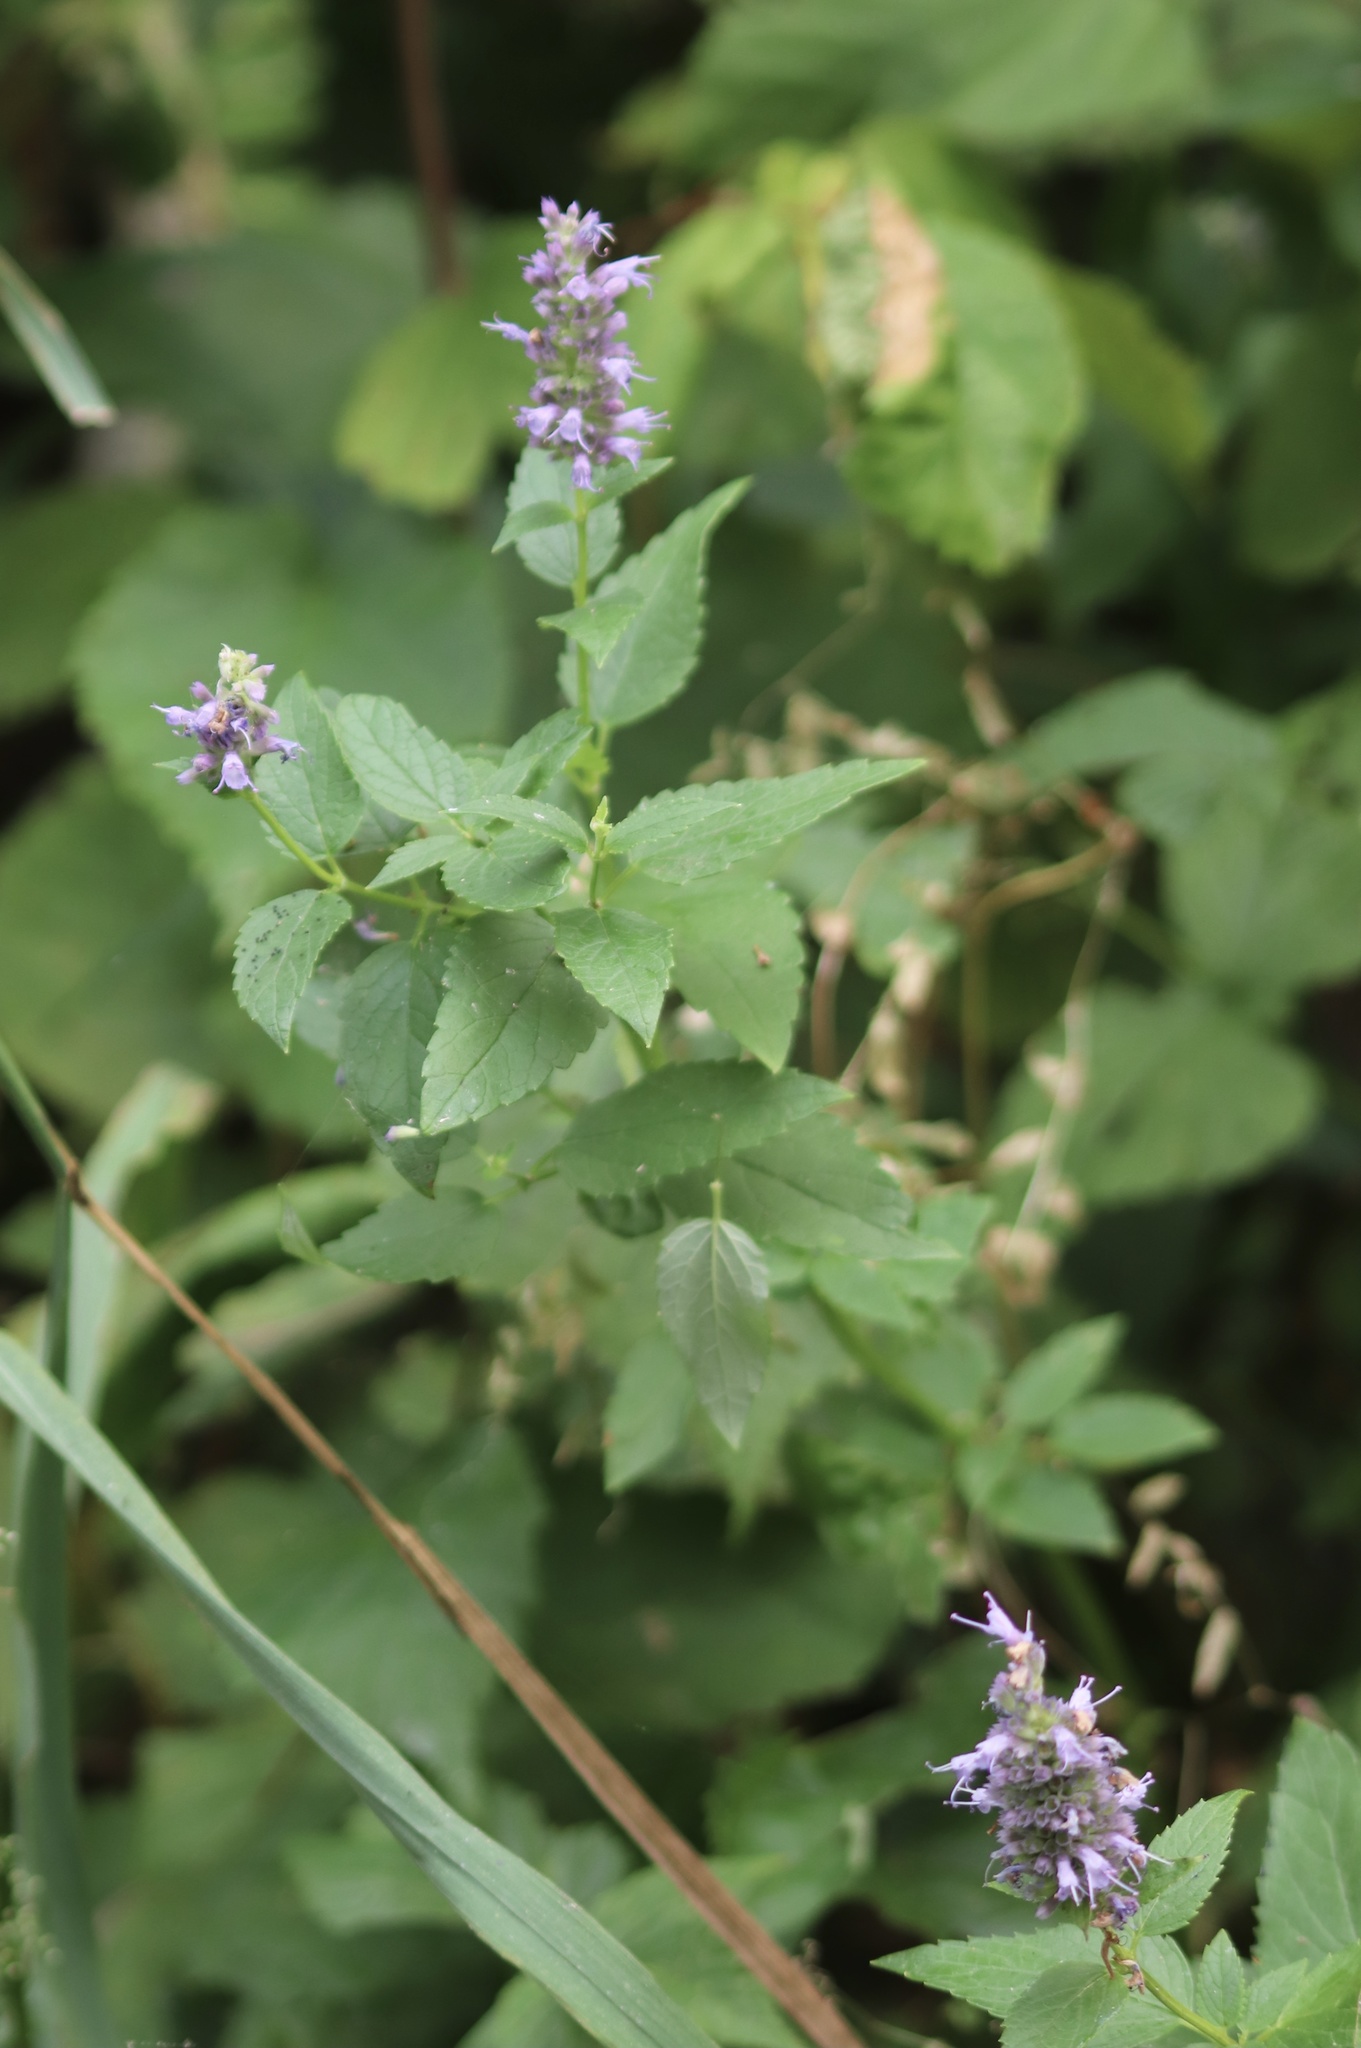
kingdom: Plantae
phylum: Tracheophyta
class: Magnoliopsida
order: Lamiales
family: Lamiaceae
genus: Agastache
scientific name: Agastache foeniculum
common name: Anise hyssop
